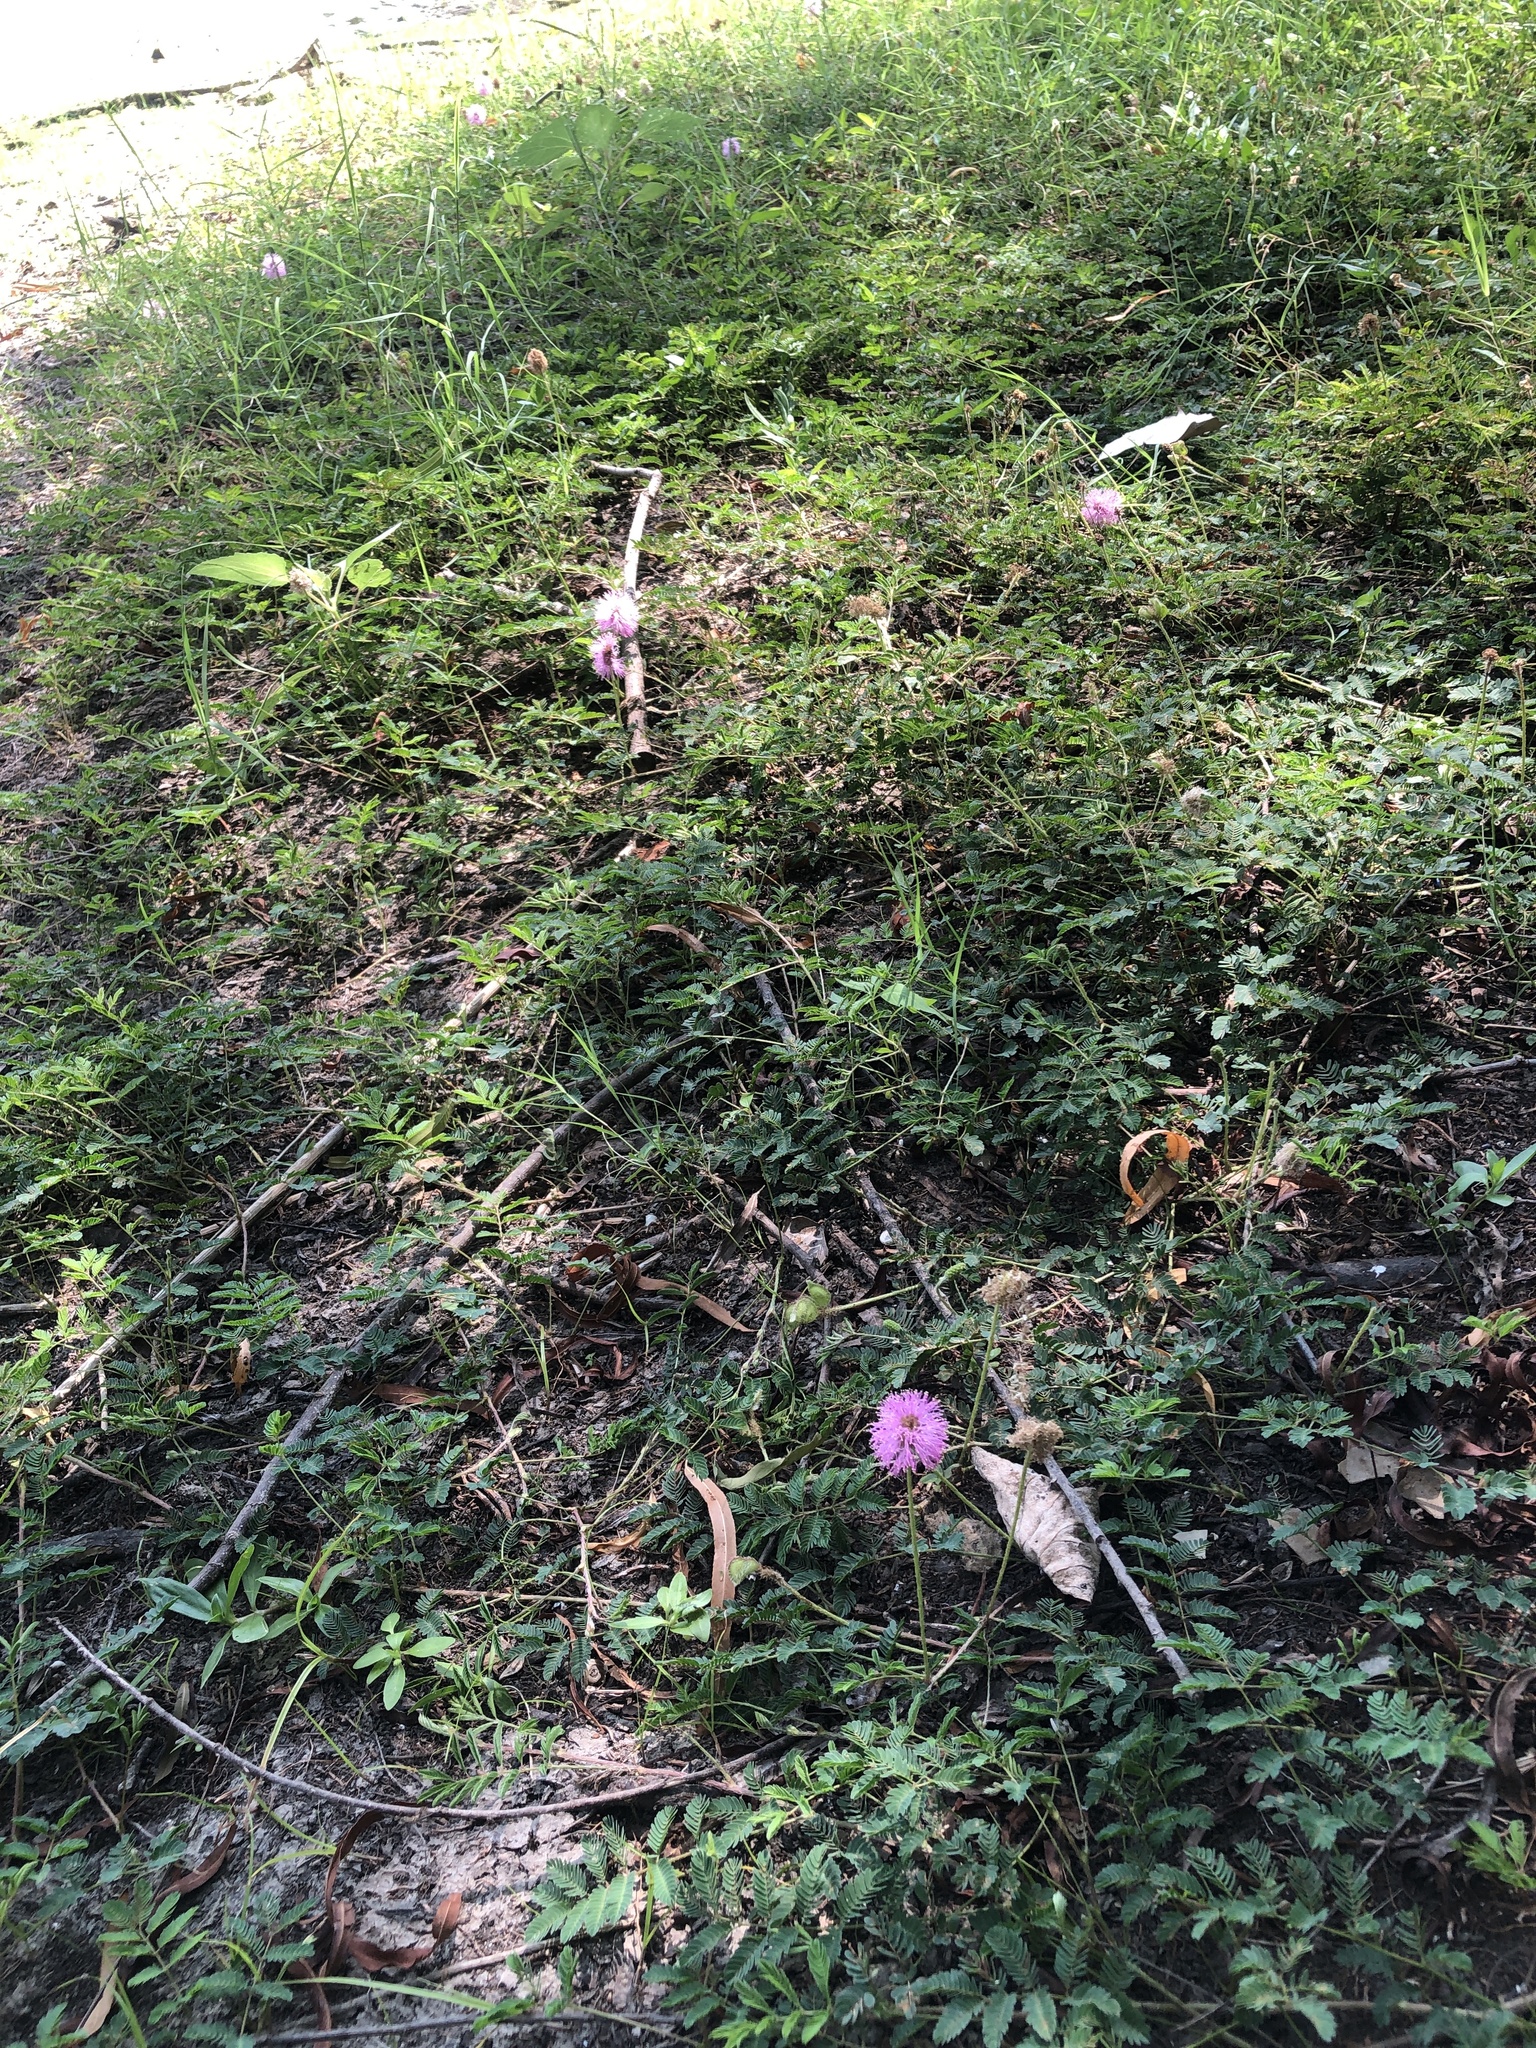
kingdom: Plantae
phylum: Tracheophyta
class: Magnoliopsida
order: Fabales
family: Fabaceae
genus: Mimosa
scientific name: Mimosa strigillosa
